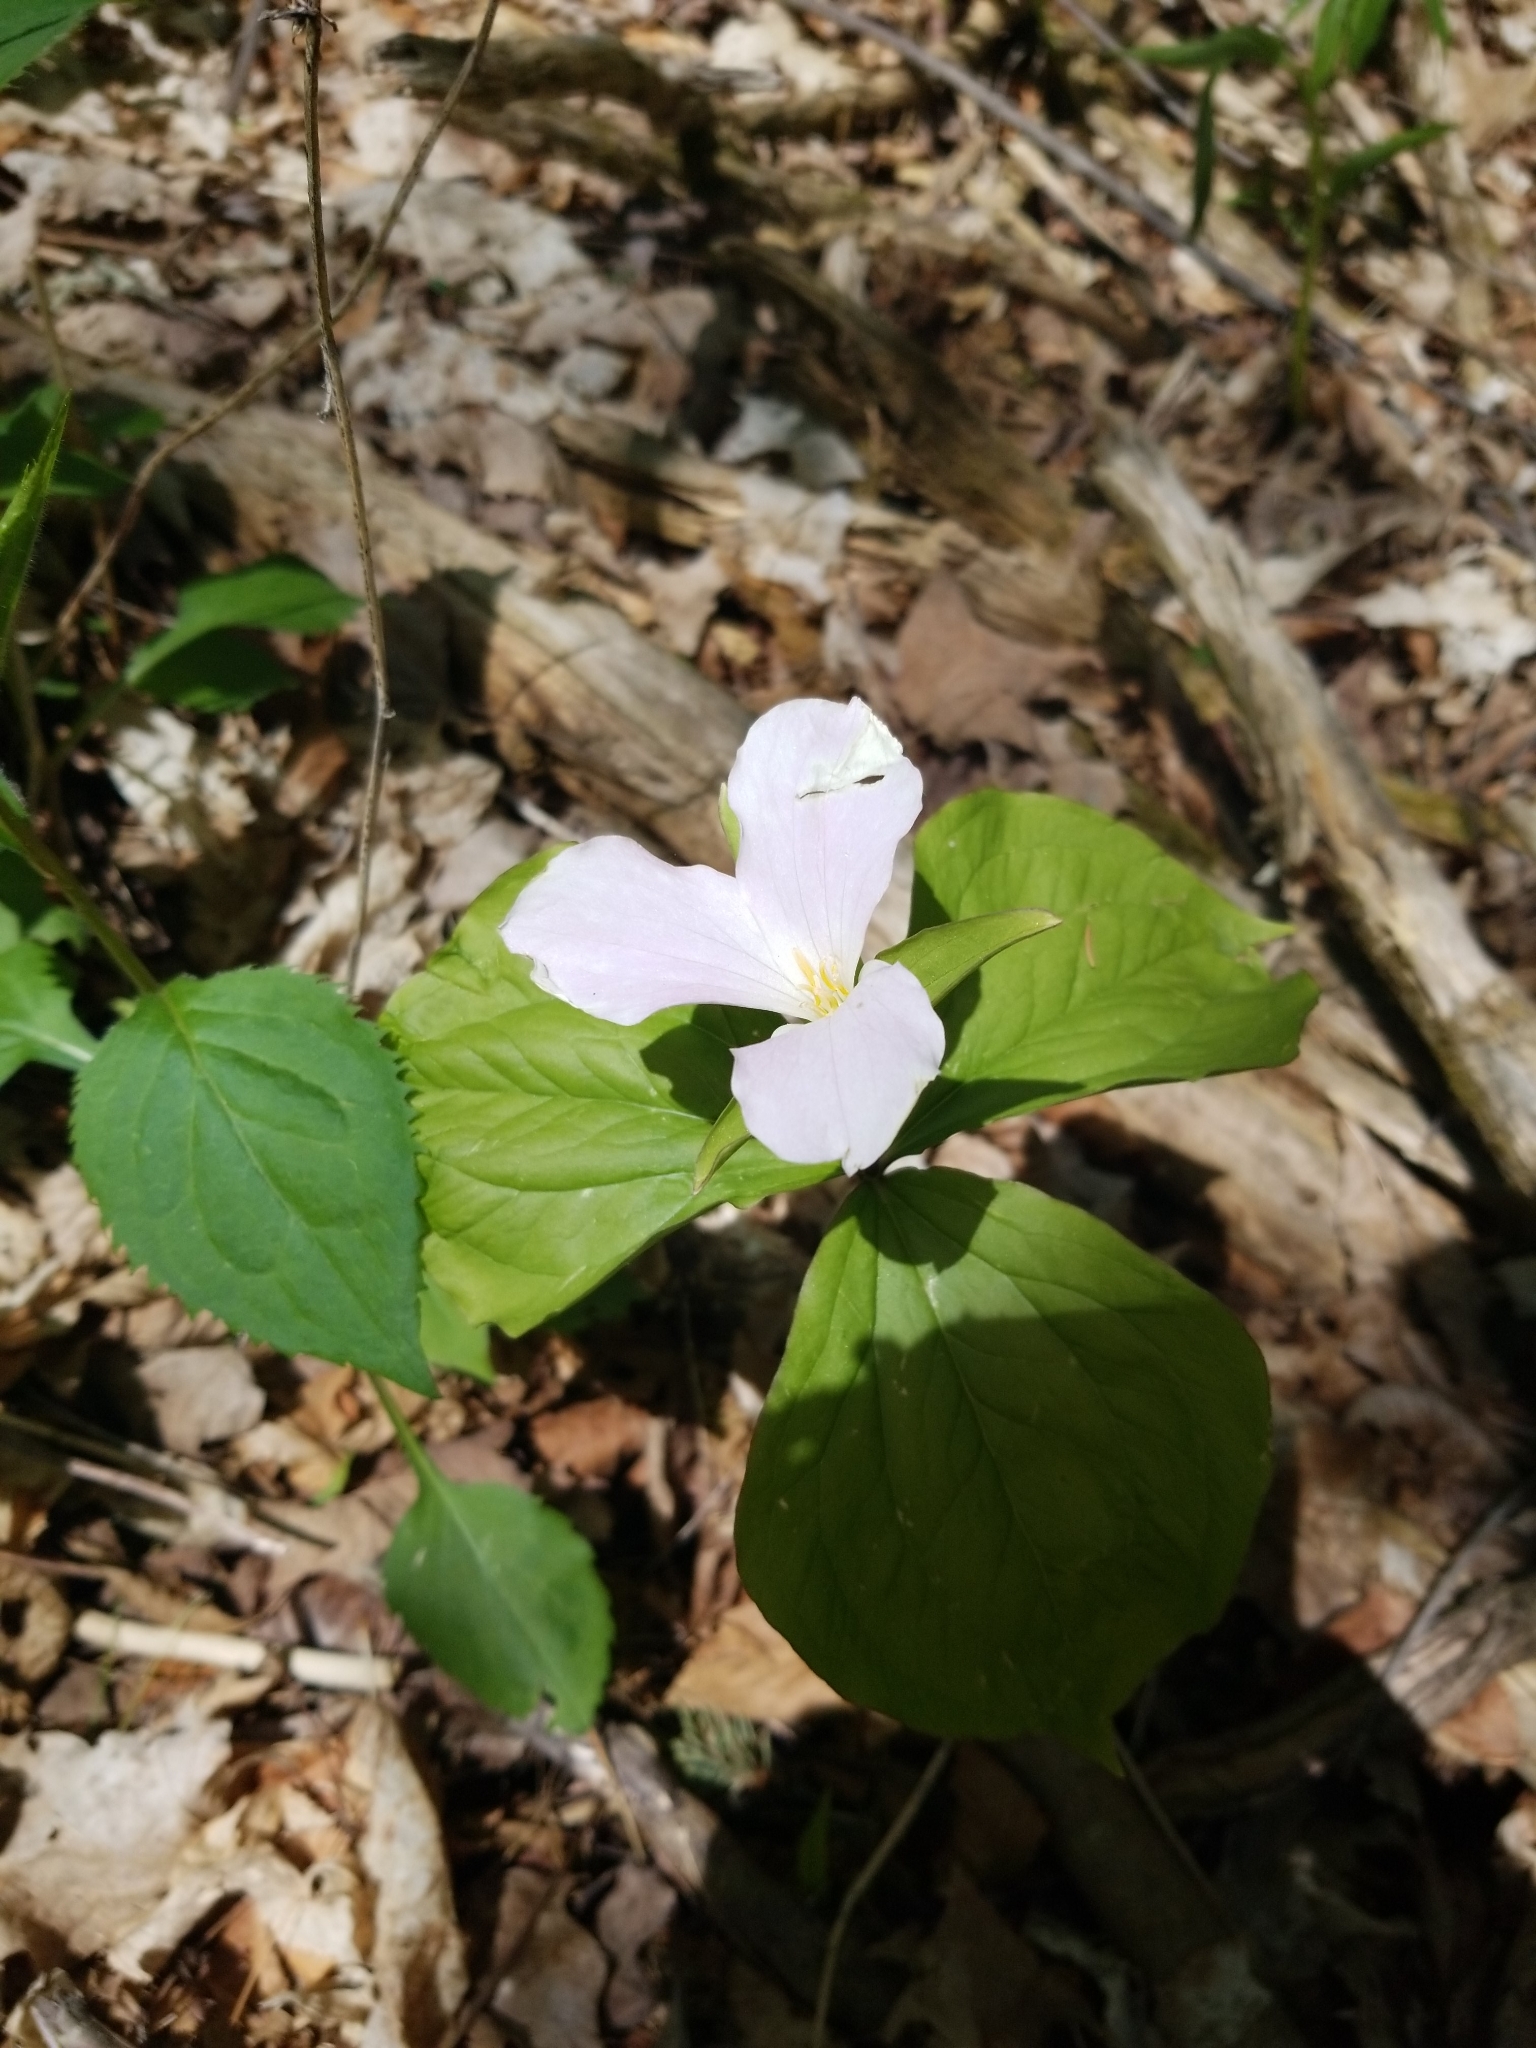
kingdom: Plantae
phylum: Tracheophyta
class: Liliopsida
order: Liliales
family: Melanthiaceae
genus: Trillium
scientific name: Trillium grandiflorum
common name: Great white trillium
